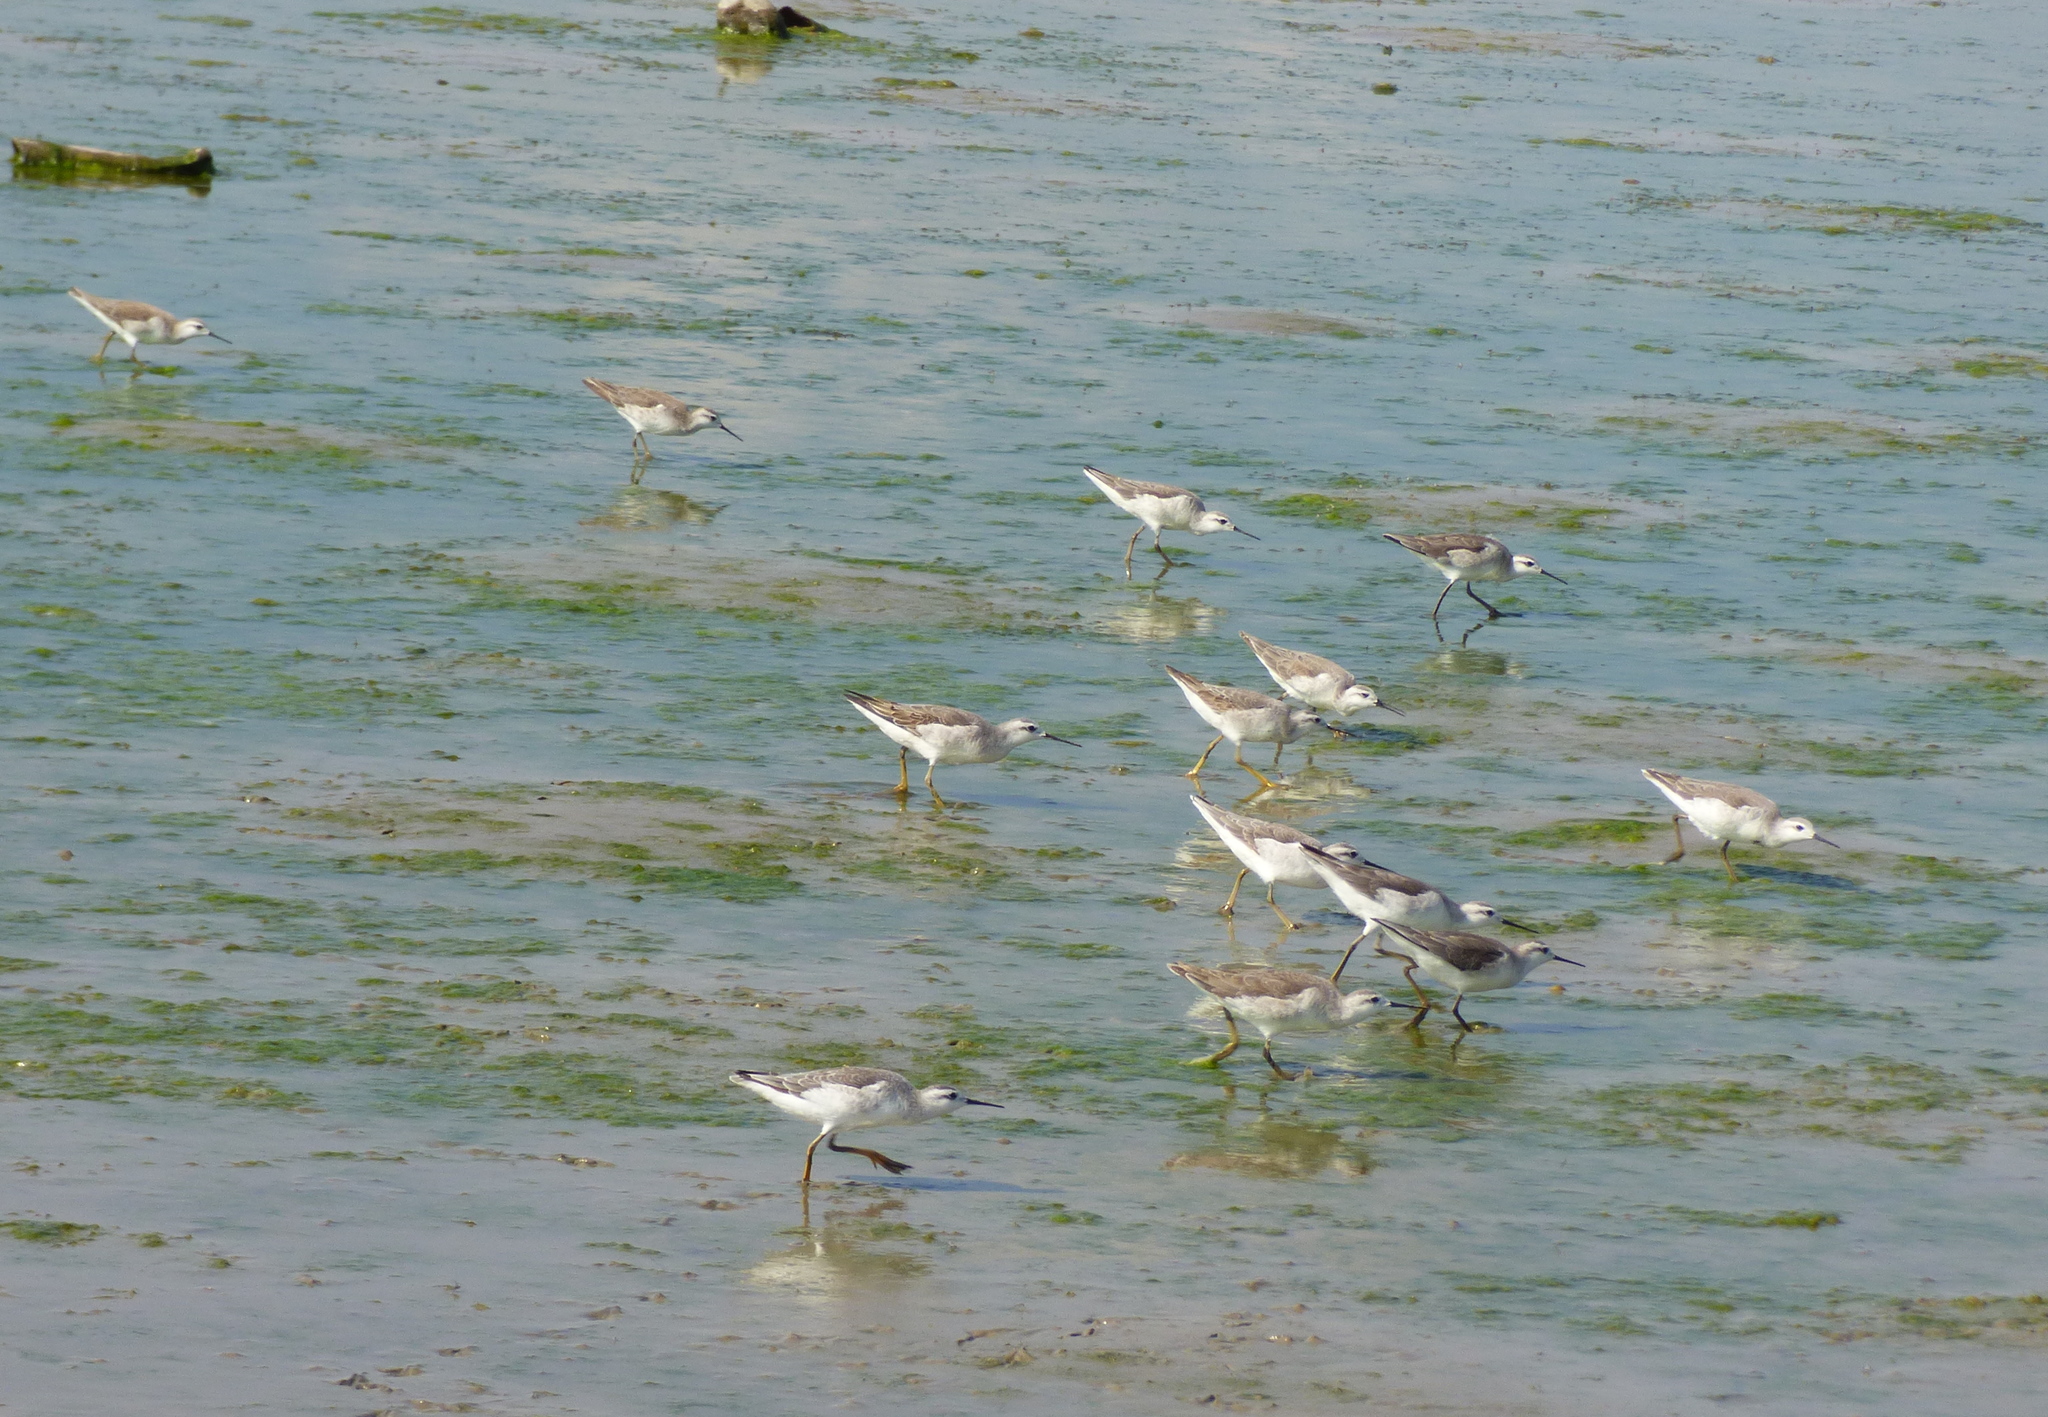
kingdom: Animalia
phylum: Chordata
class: Aves
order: Charadriiformes
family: Scolopacidae
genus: Phalaropus
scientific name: Phalaropus tricolor
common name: Wilson's phalarope
